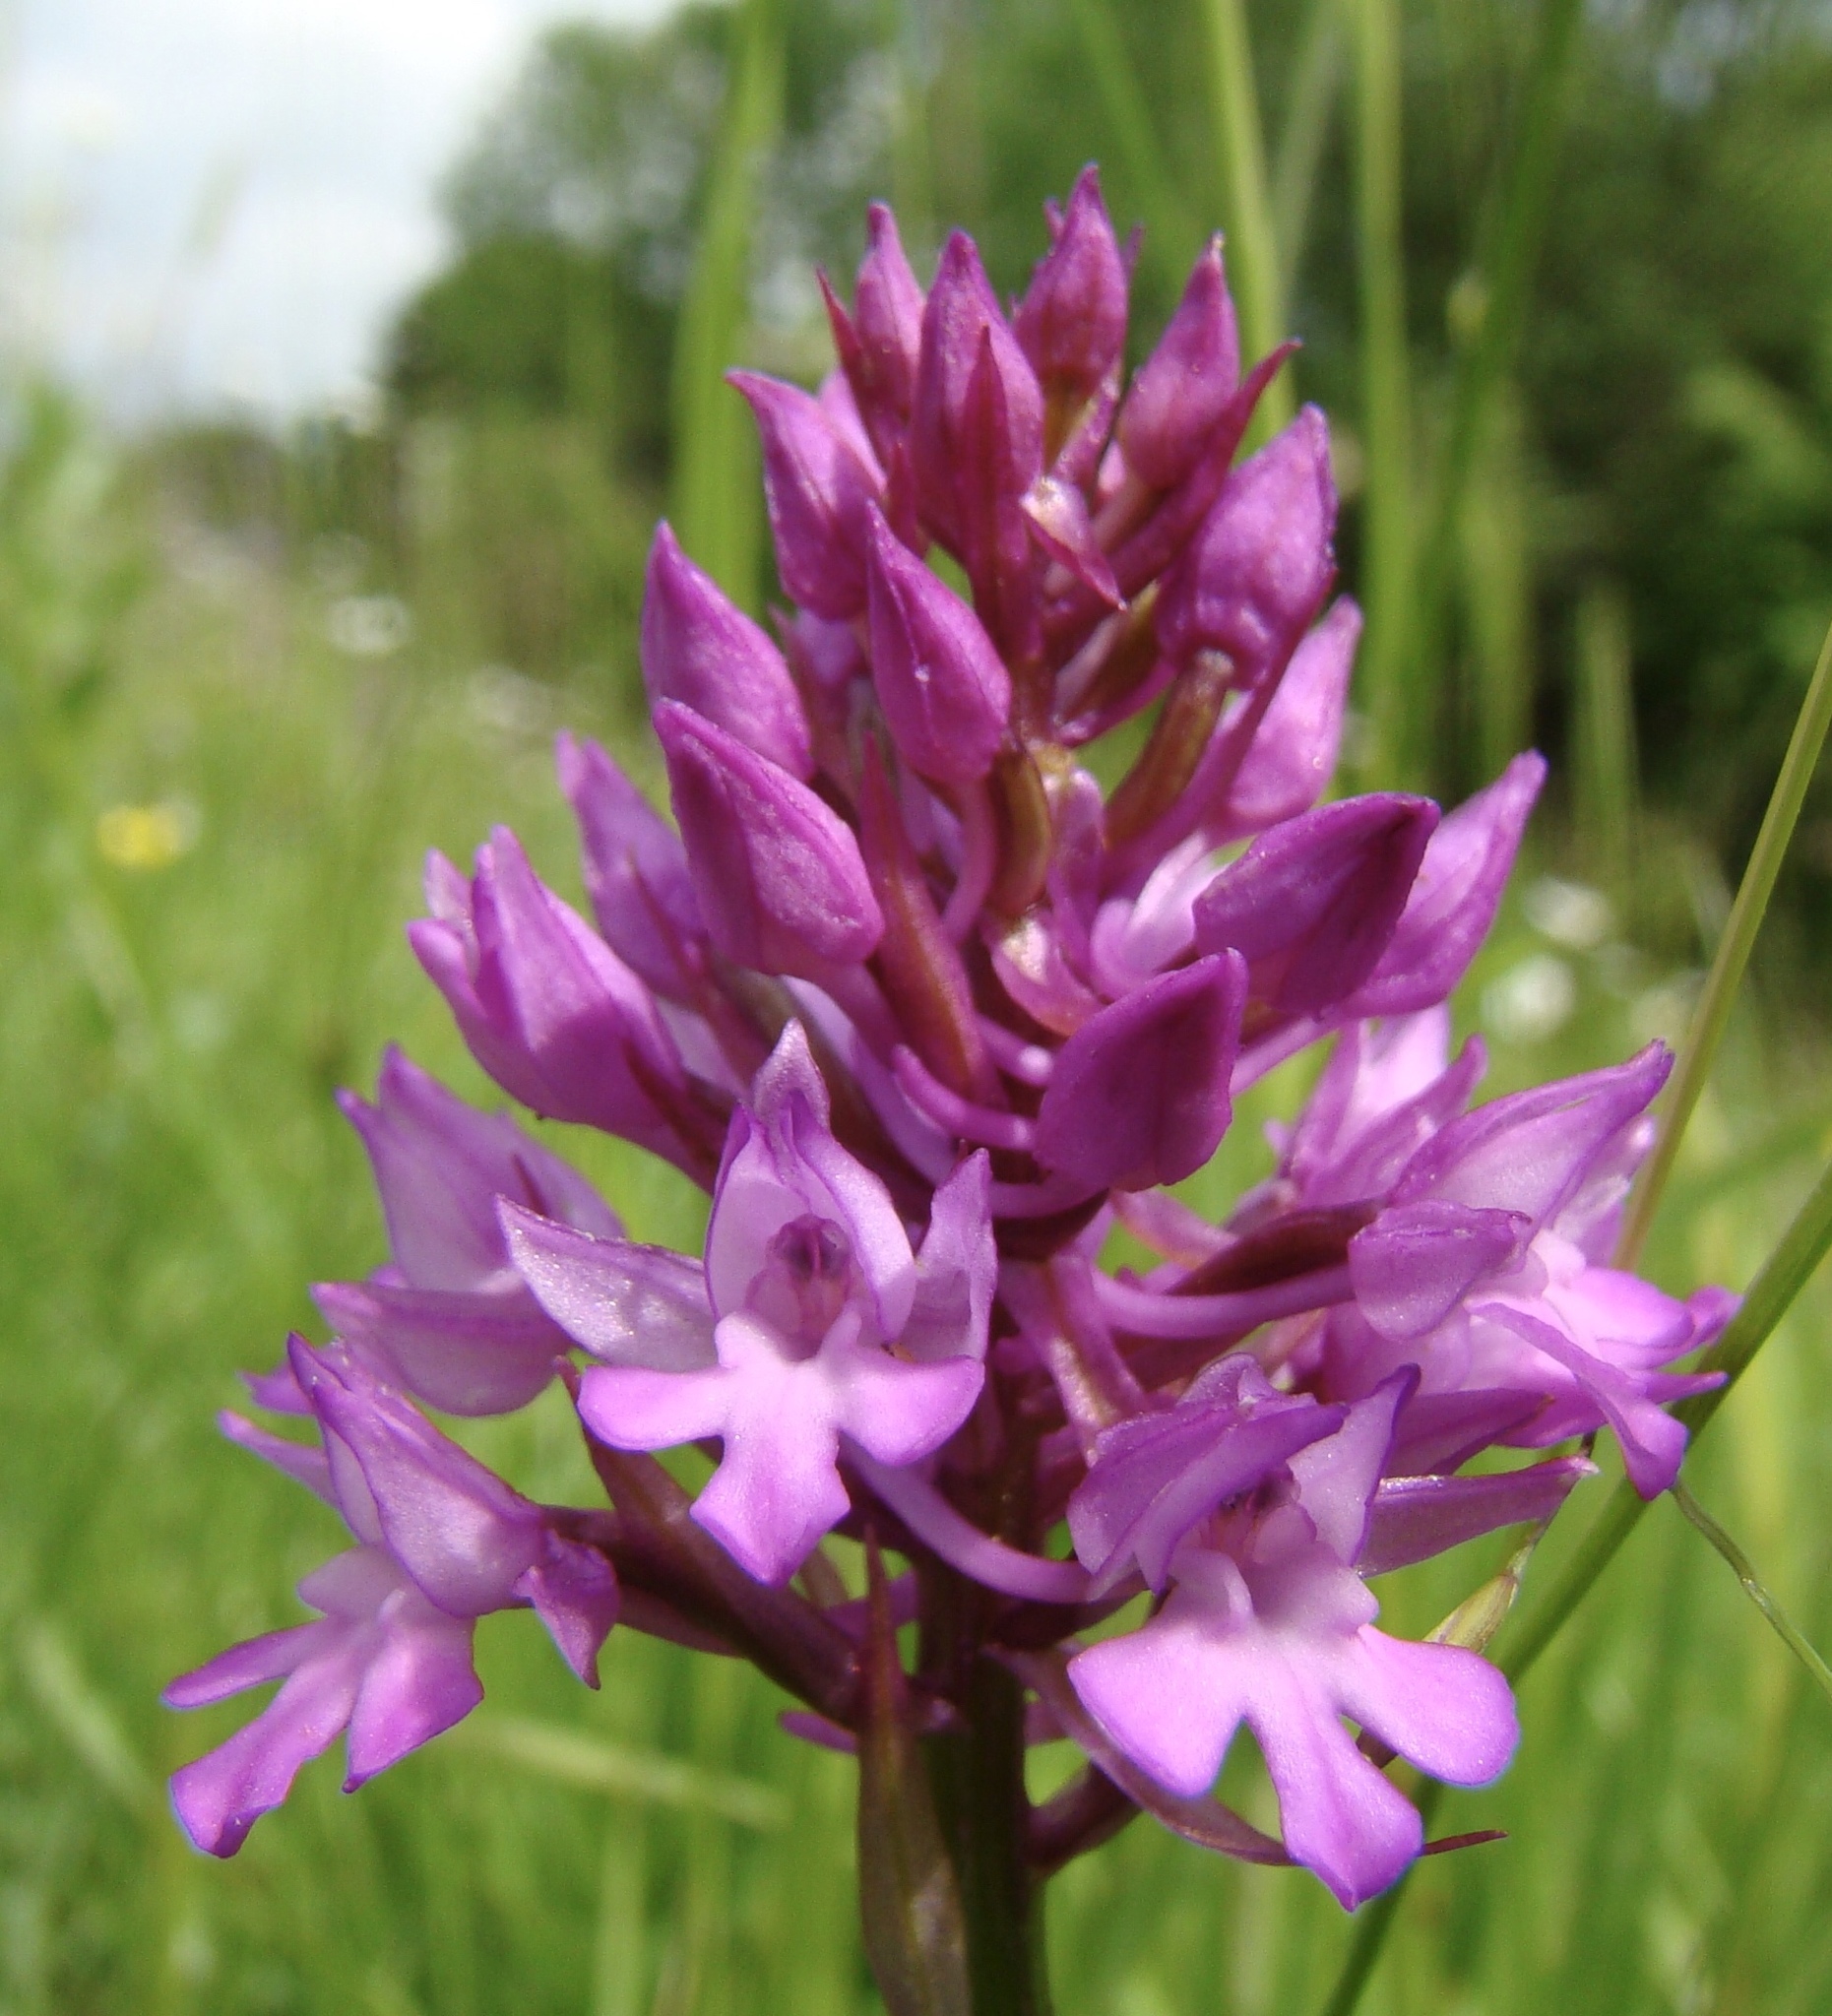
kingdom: Plantae
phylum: Tracheophyta
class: Liliopsida
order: Asparagales
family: Orchidaceae
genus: Anacamptis
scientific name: Anacamptis pyramidalis
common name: Pyramidal orchid
